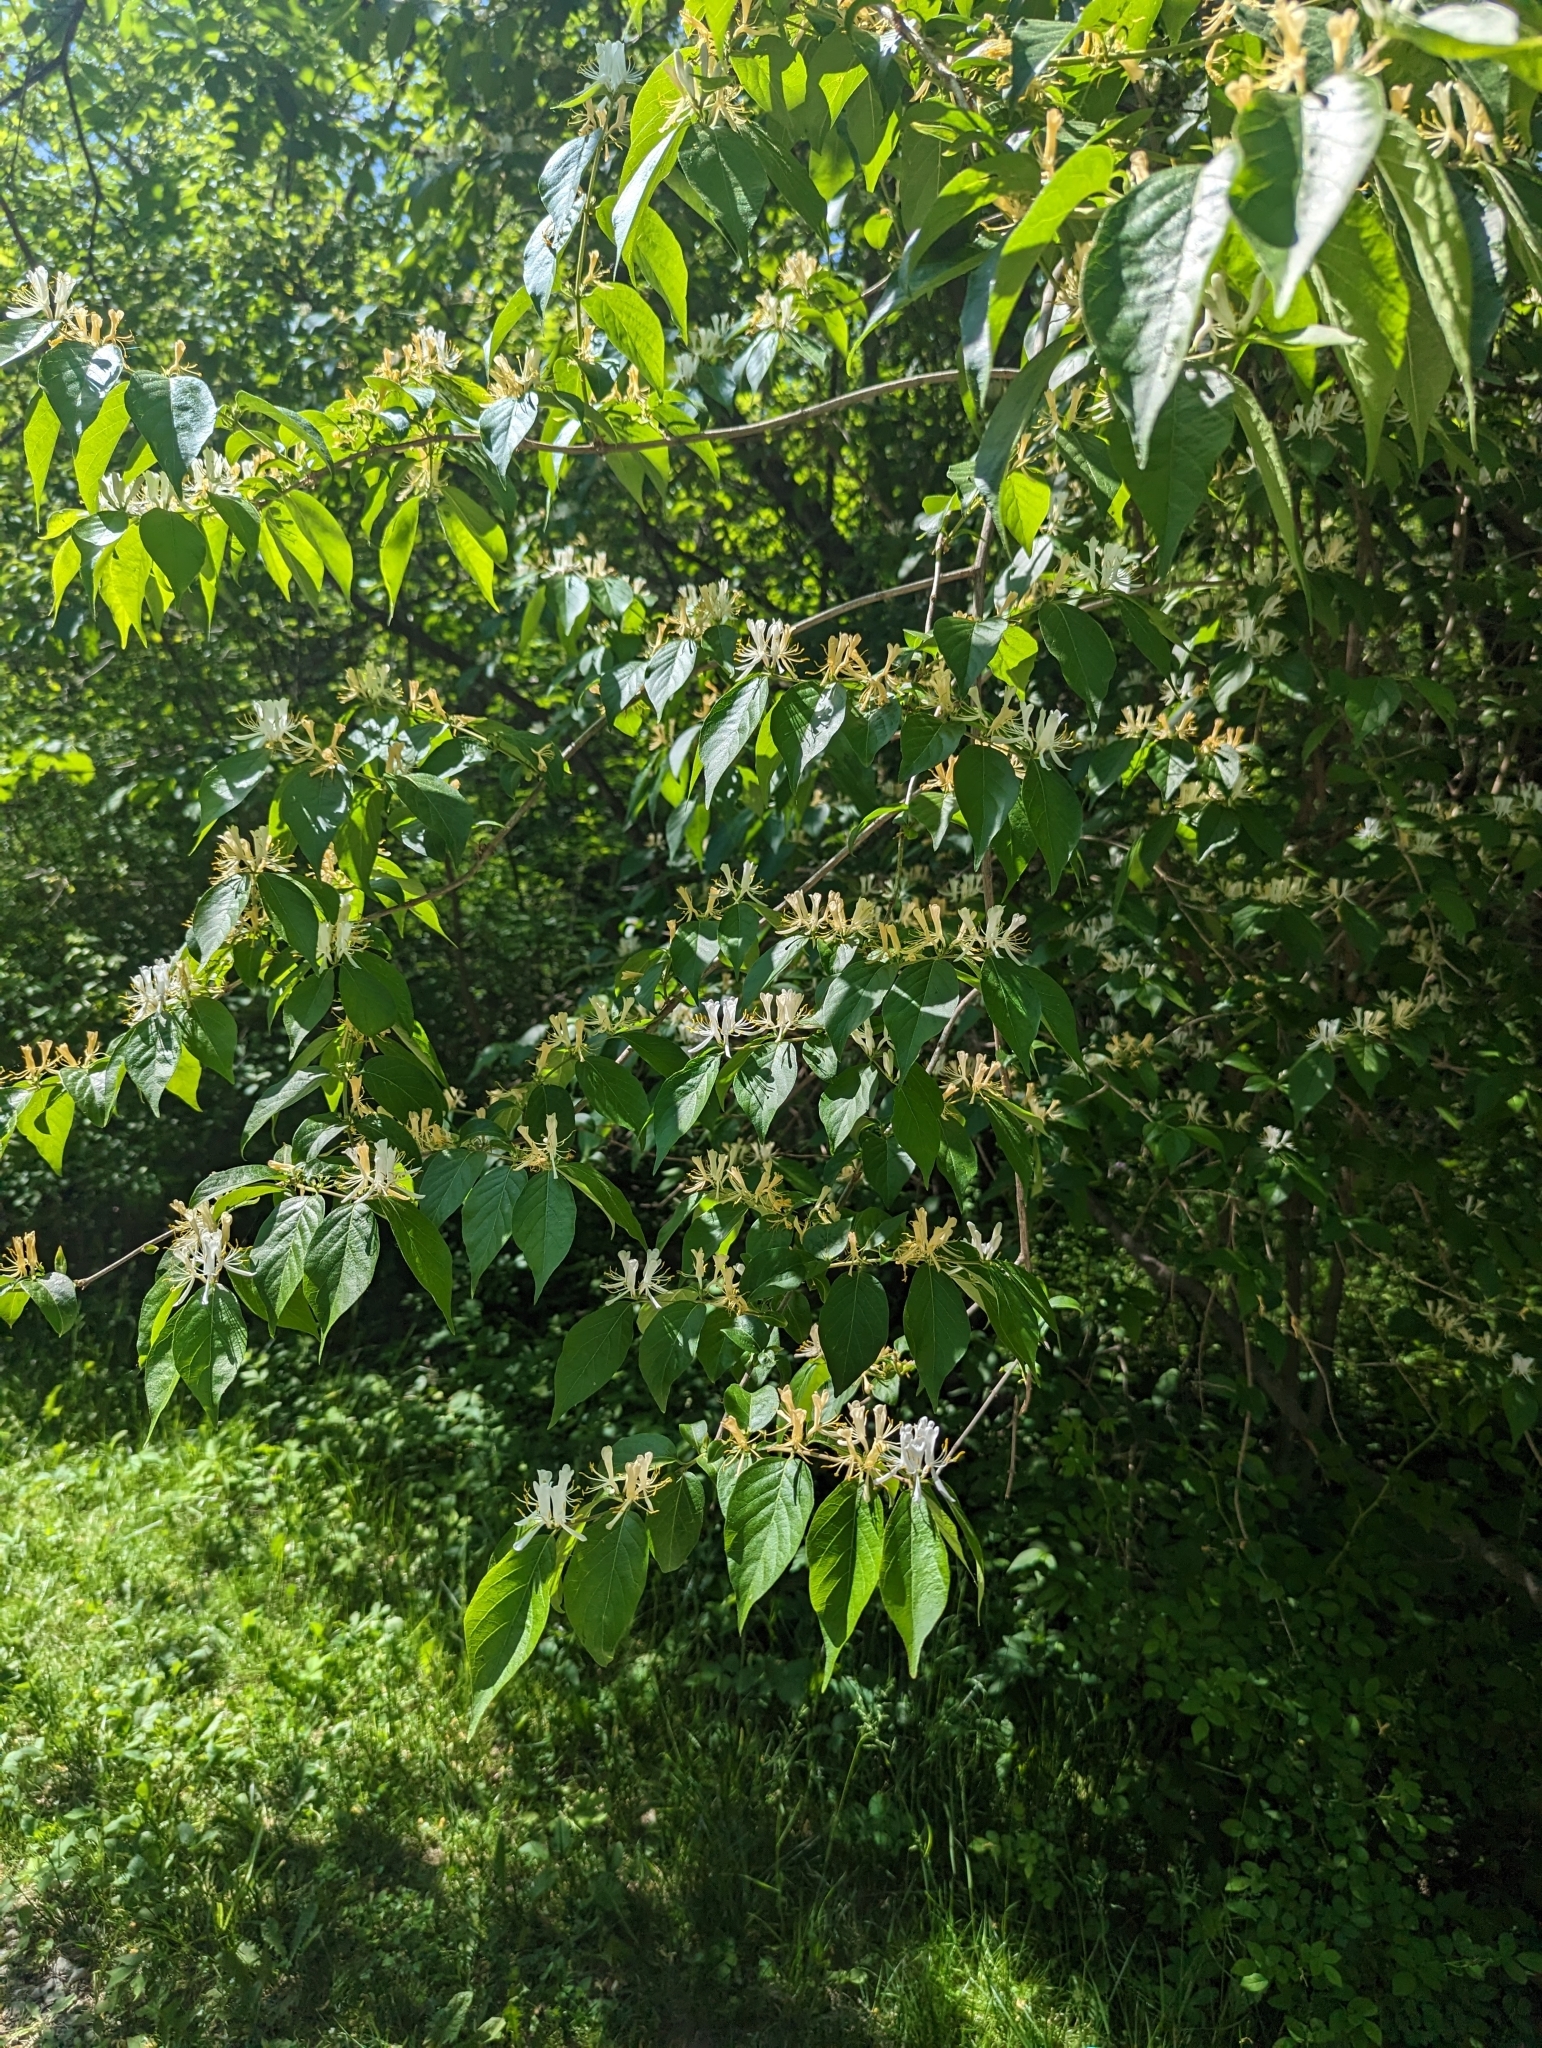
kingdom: Plantae
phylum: Tracheophyta
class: Magnoliopsida
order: Dipsacales
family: Caprifoliaceae
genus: Lonicera
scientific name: Lonicera maackii
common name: Amur honeysuckle
